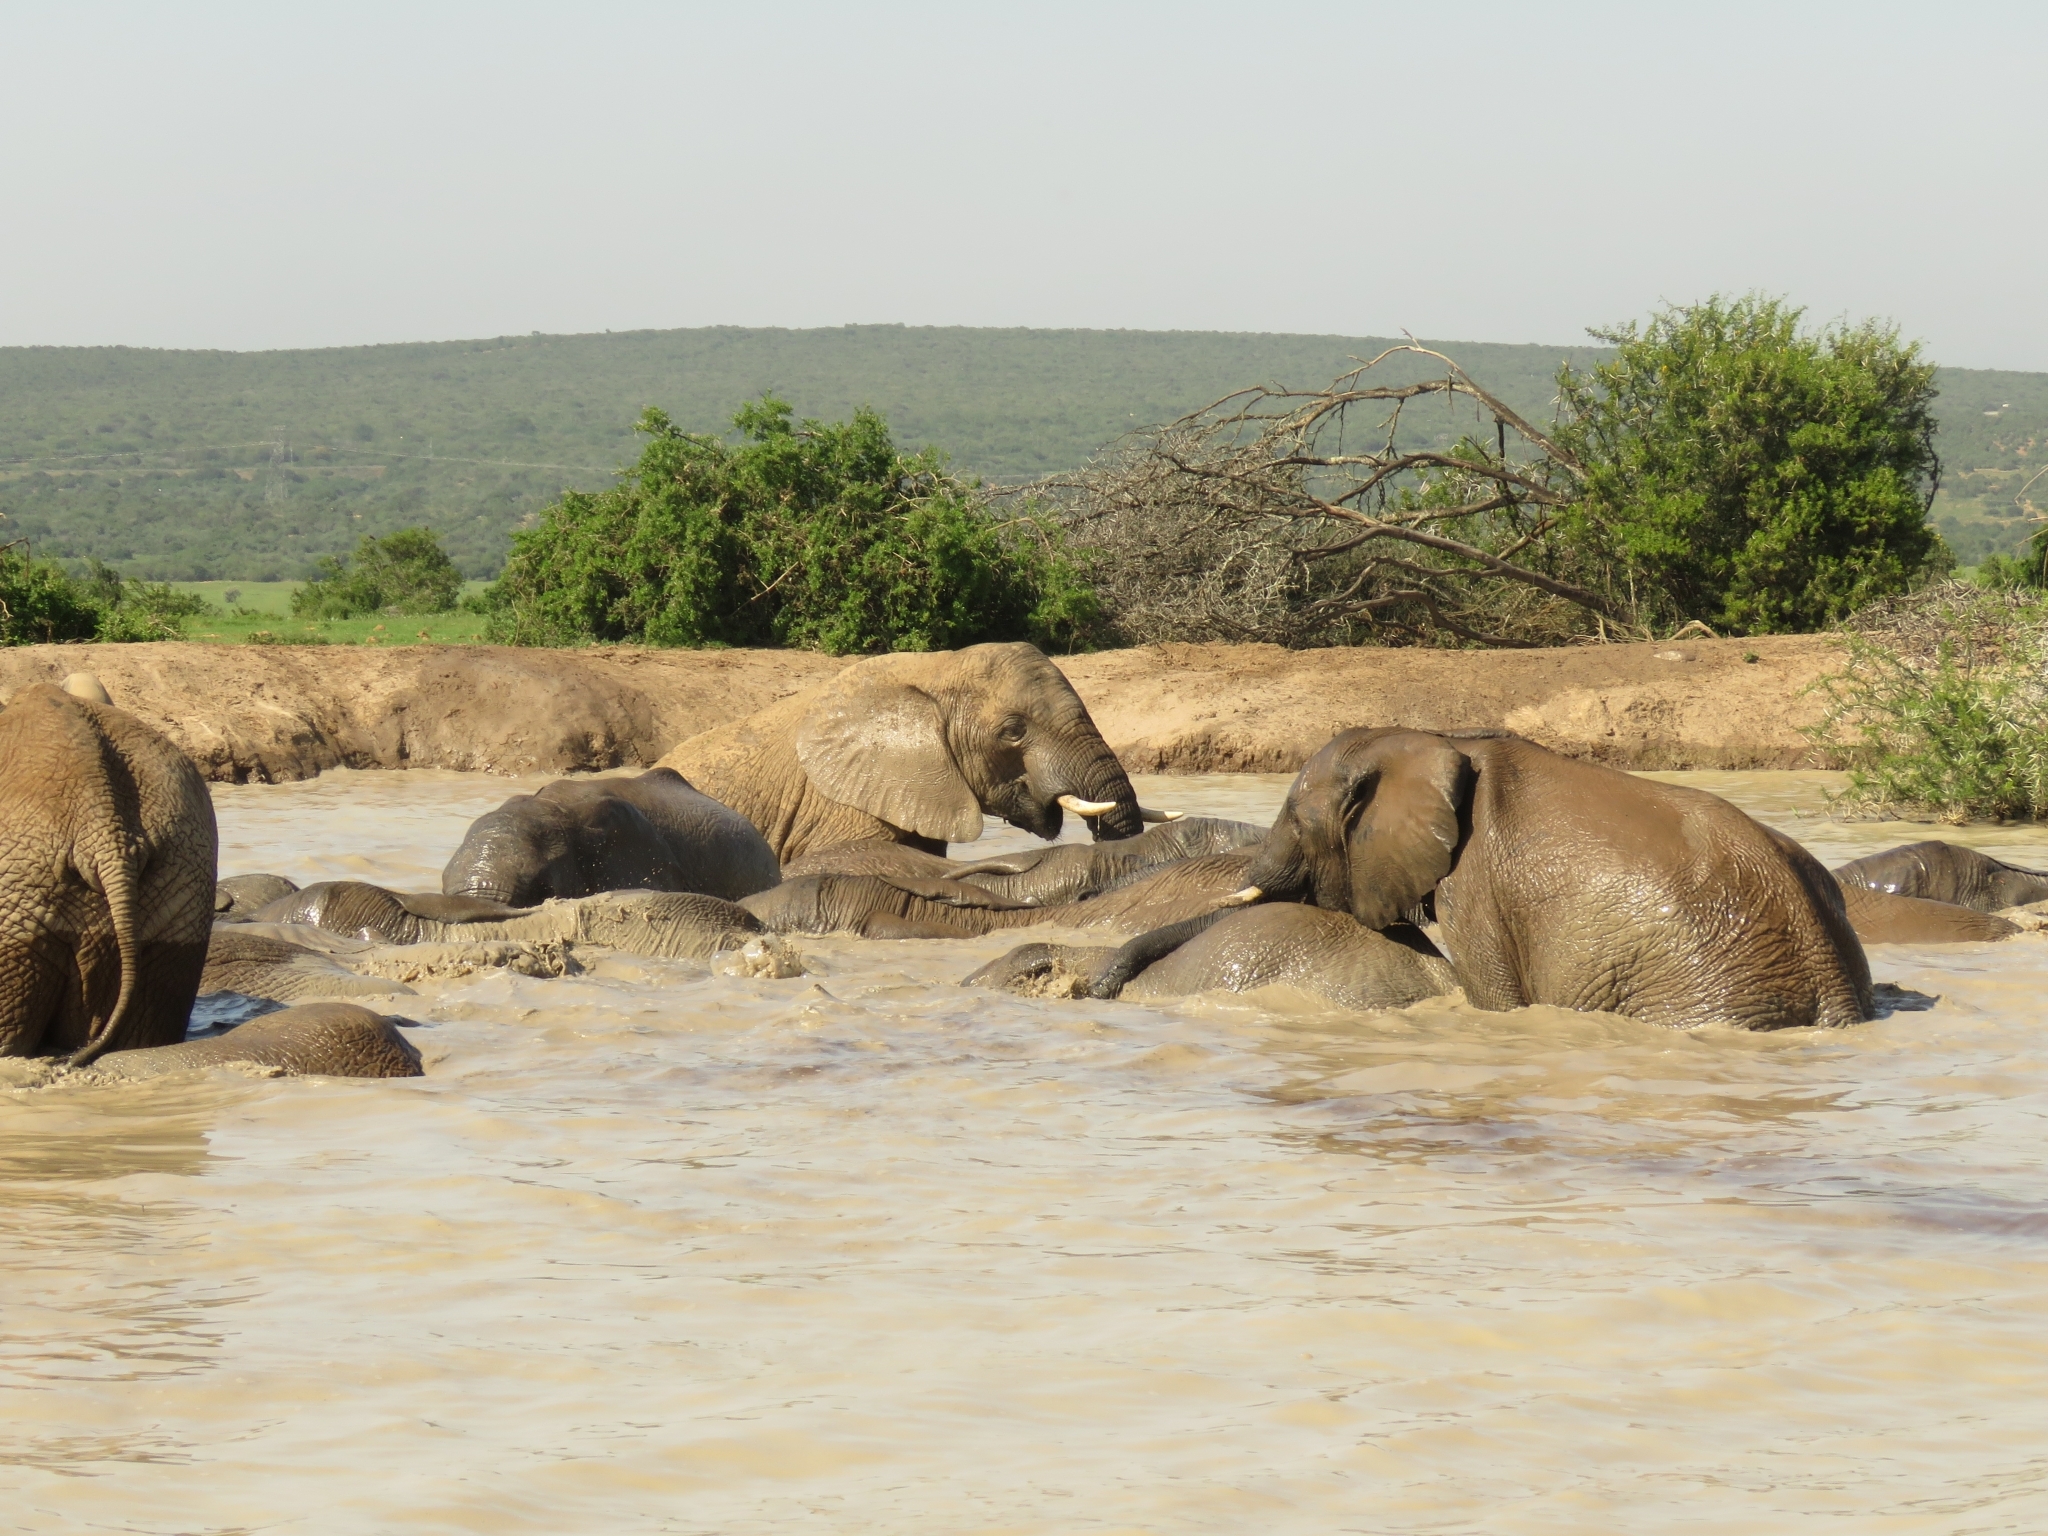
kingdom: Animalia
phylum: Chordata
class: Mammalia
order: Proboscidea
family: Elephantidae
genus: Loxodonta
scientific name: Loxodonta africana
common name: African elephant
